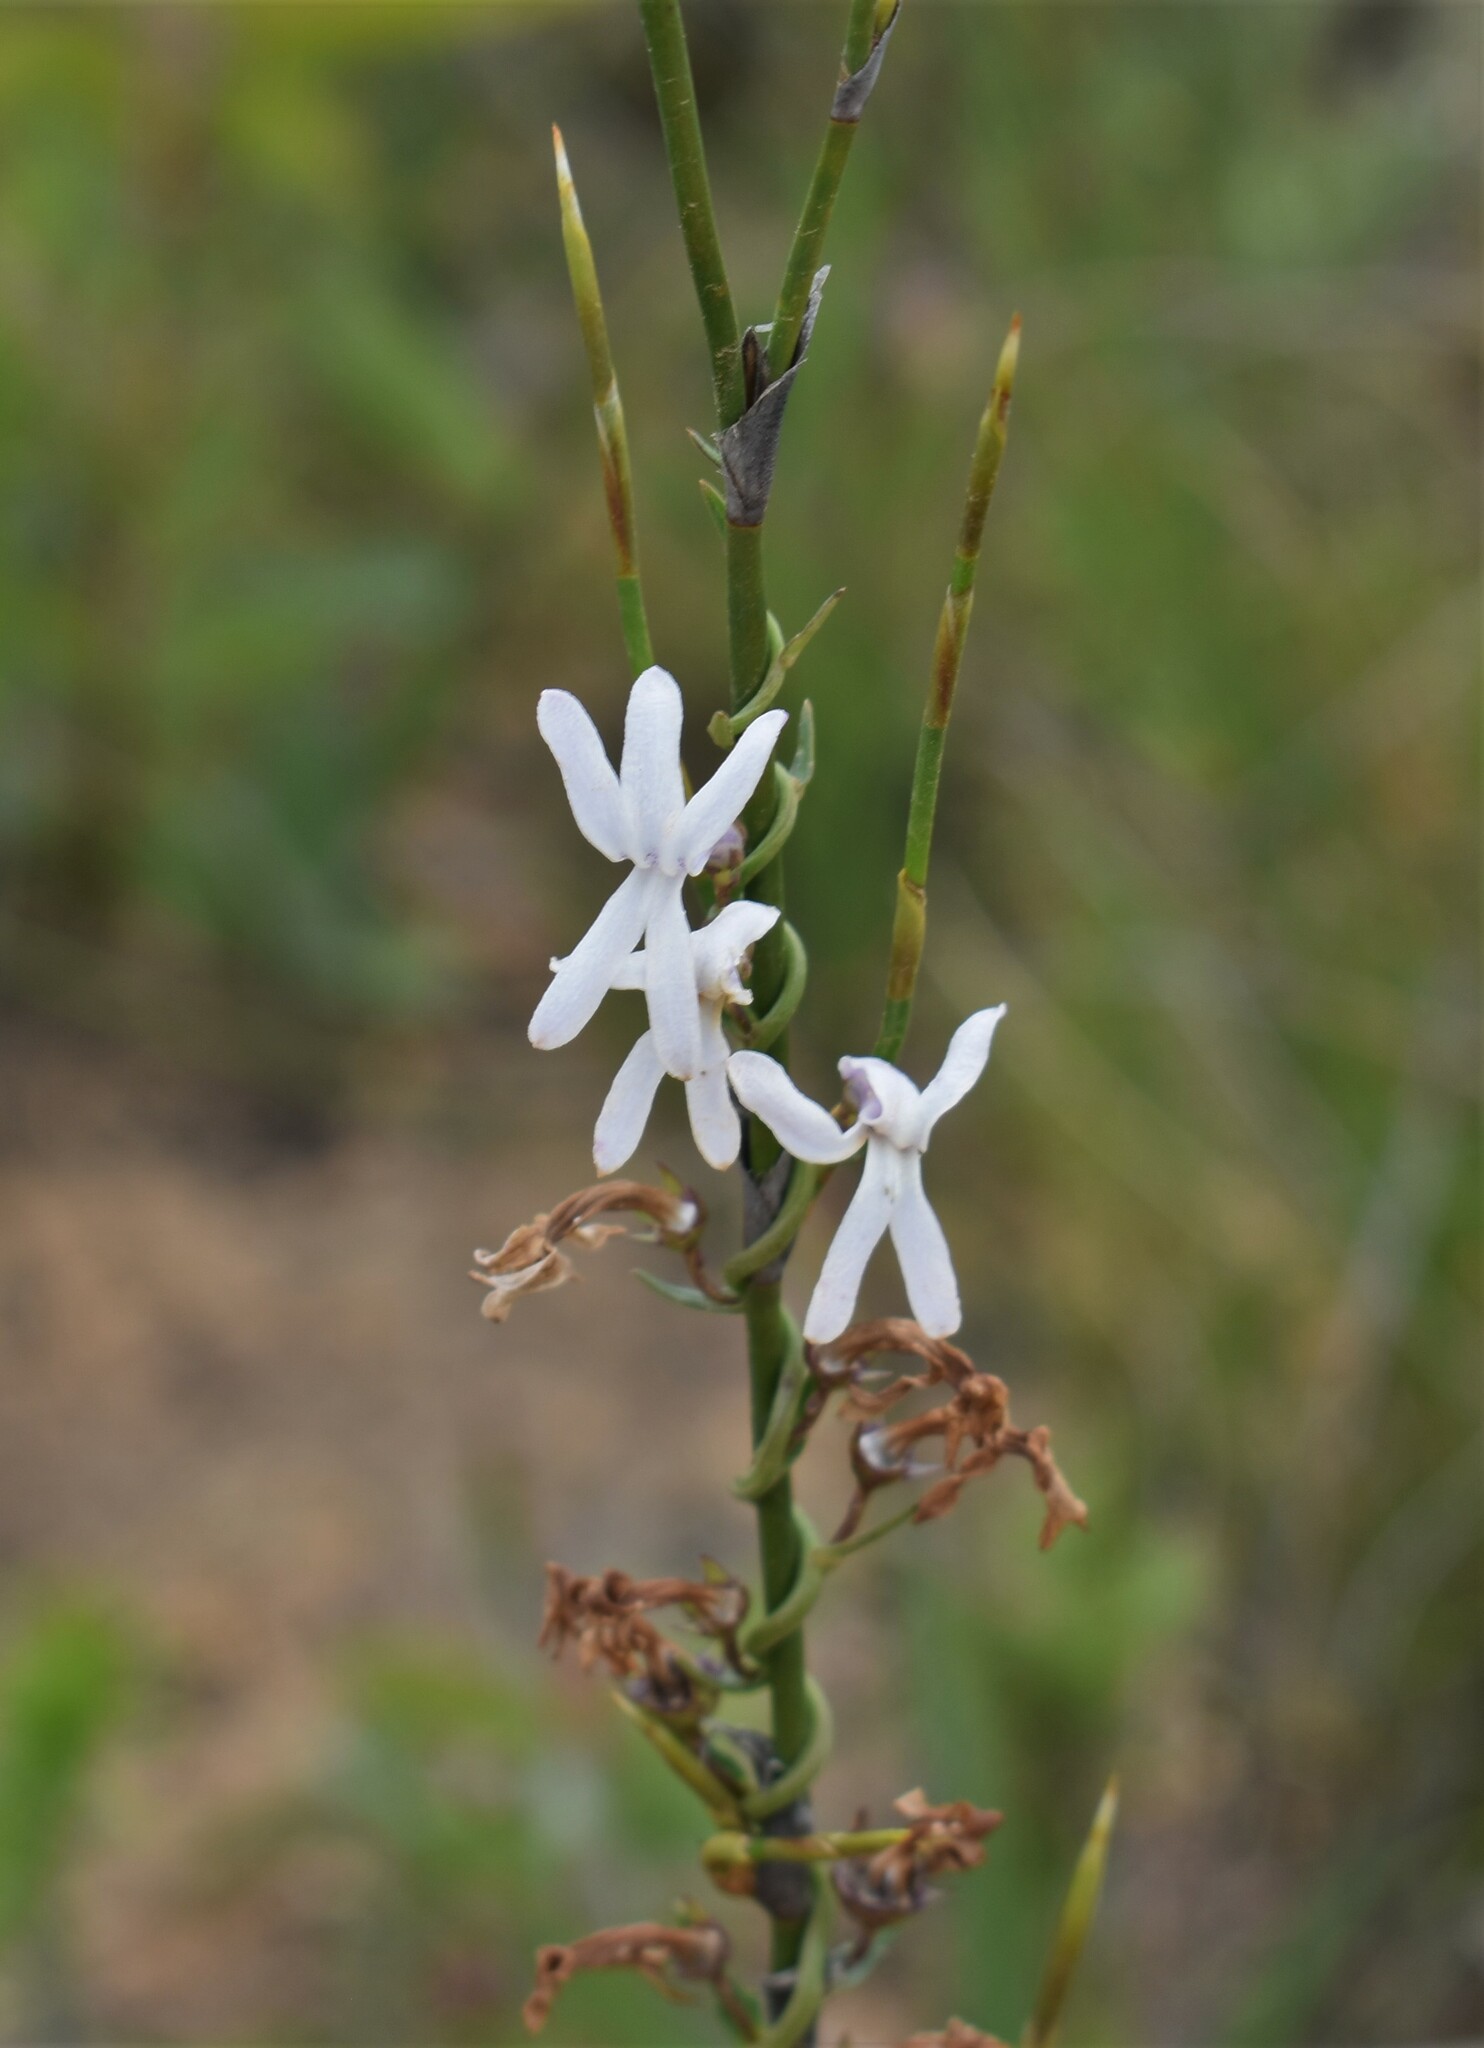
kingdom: Plantae
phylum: Tracheophyta
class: Magnoliopsida
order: Asterales
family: Campanulaceae
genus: Cyphia
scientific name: Cyphia volubilis
